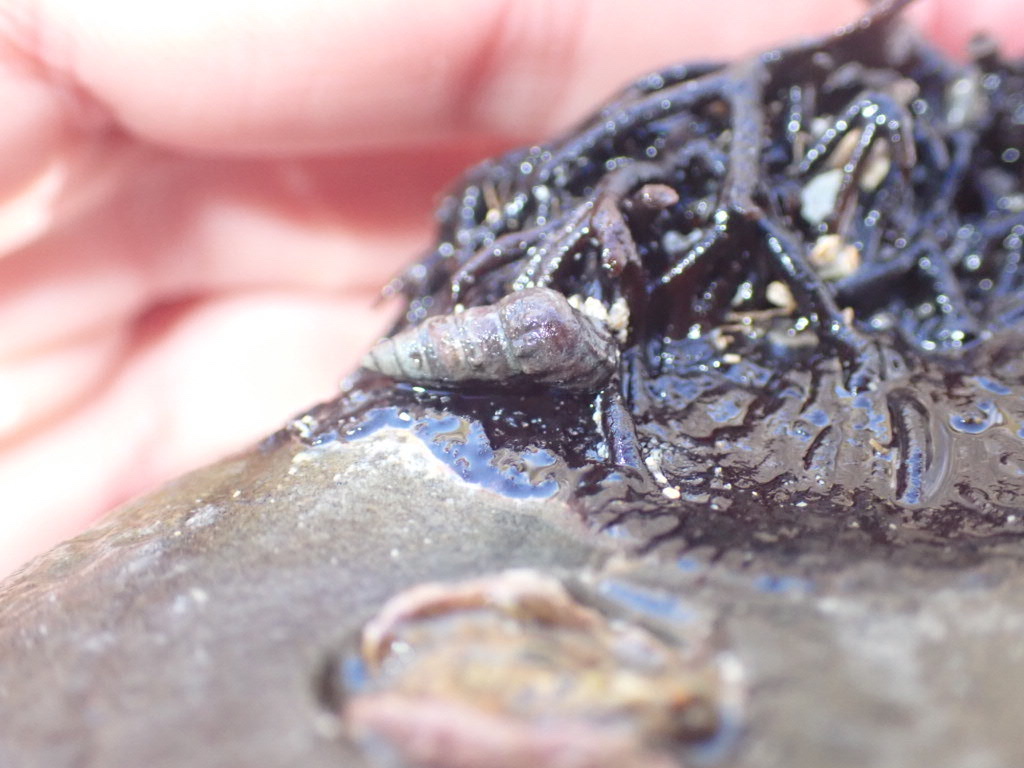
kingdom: Animalia
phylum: Mollusca
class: Gastropoda
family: Batillariidae
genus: Zeacumantus
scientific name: Zeacumantus subcarinatus
